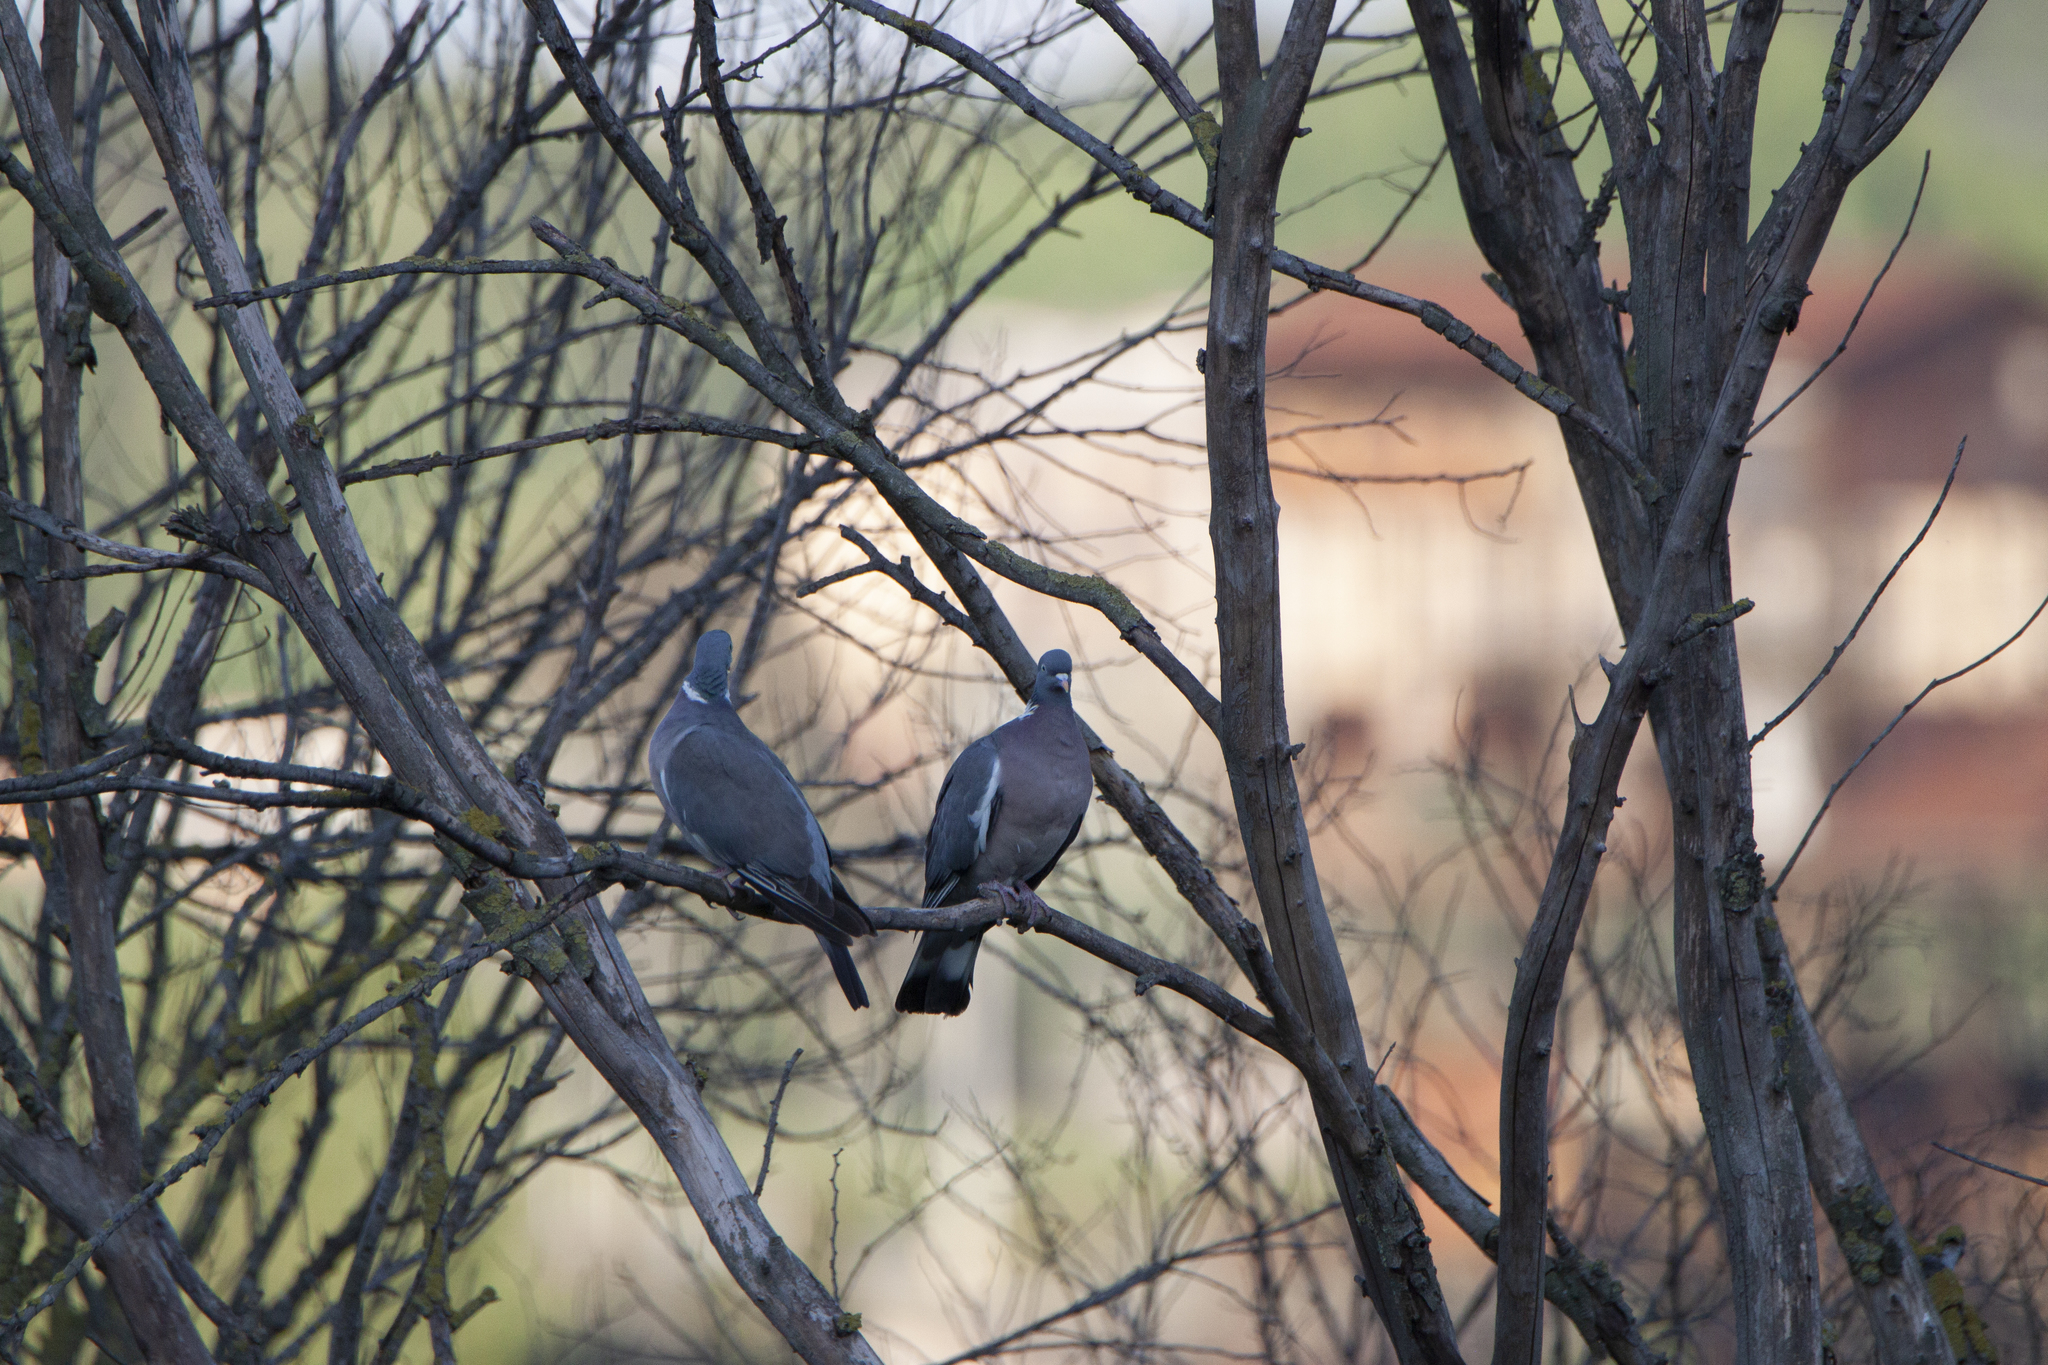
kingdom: Animalia
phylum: Chordata
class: Aves
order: Columbiformes
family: Columbidae
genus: Columba
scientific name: Columba palumbus
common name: Common wood pigeon
